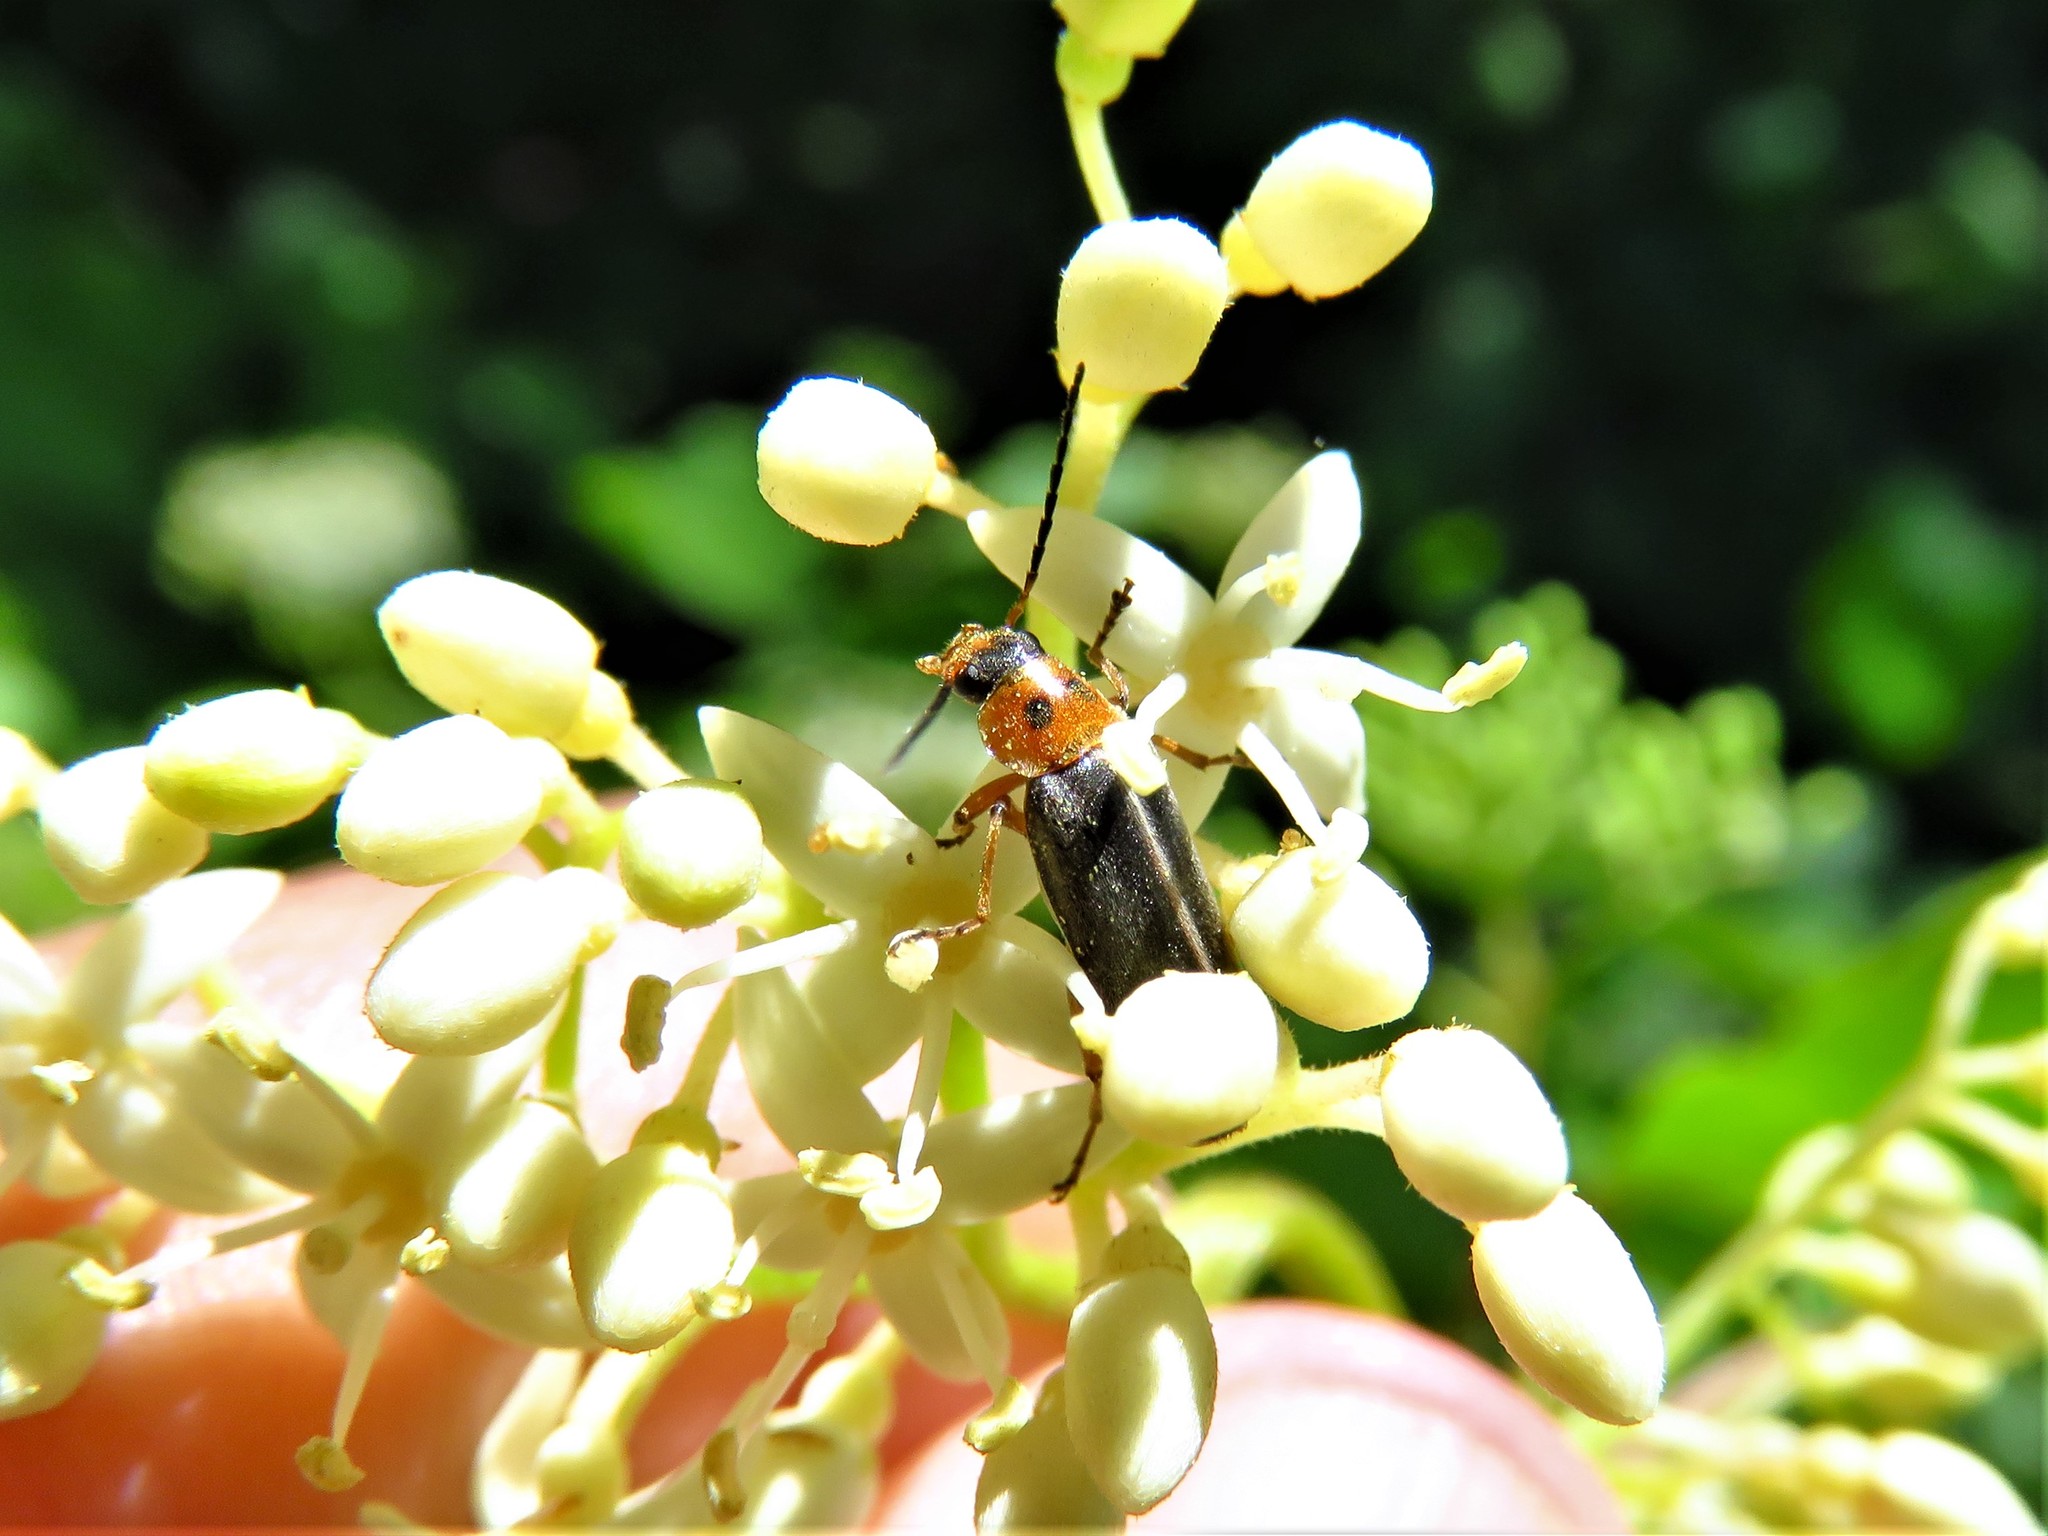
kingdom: Animalia
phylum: Arthropoda
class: Insecta
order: Coleoptera
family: Melandryidae
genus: Osphya
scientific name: Osphya varians
